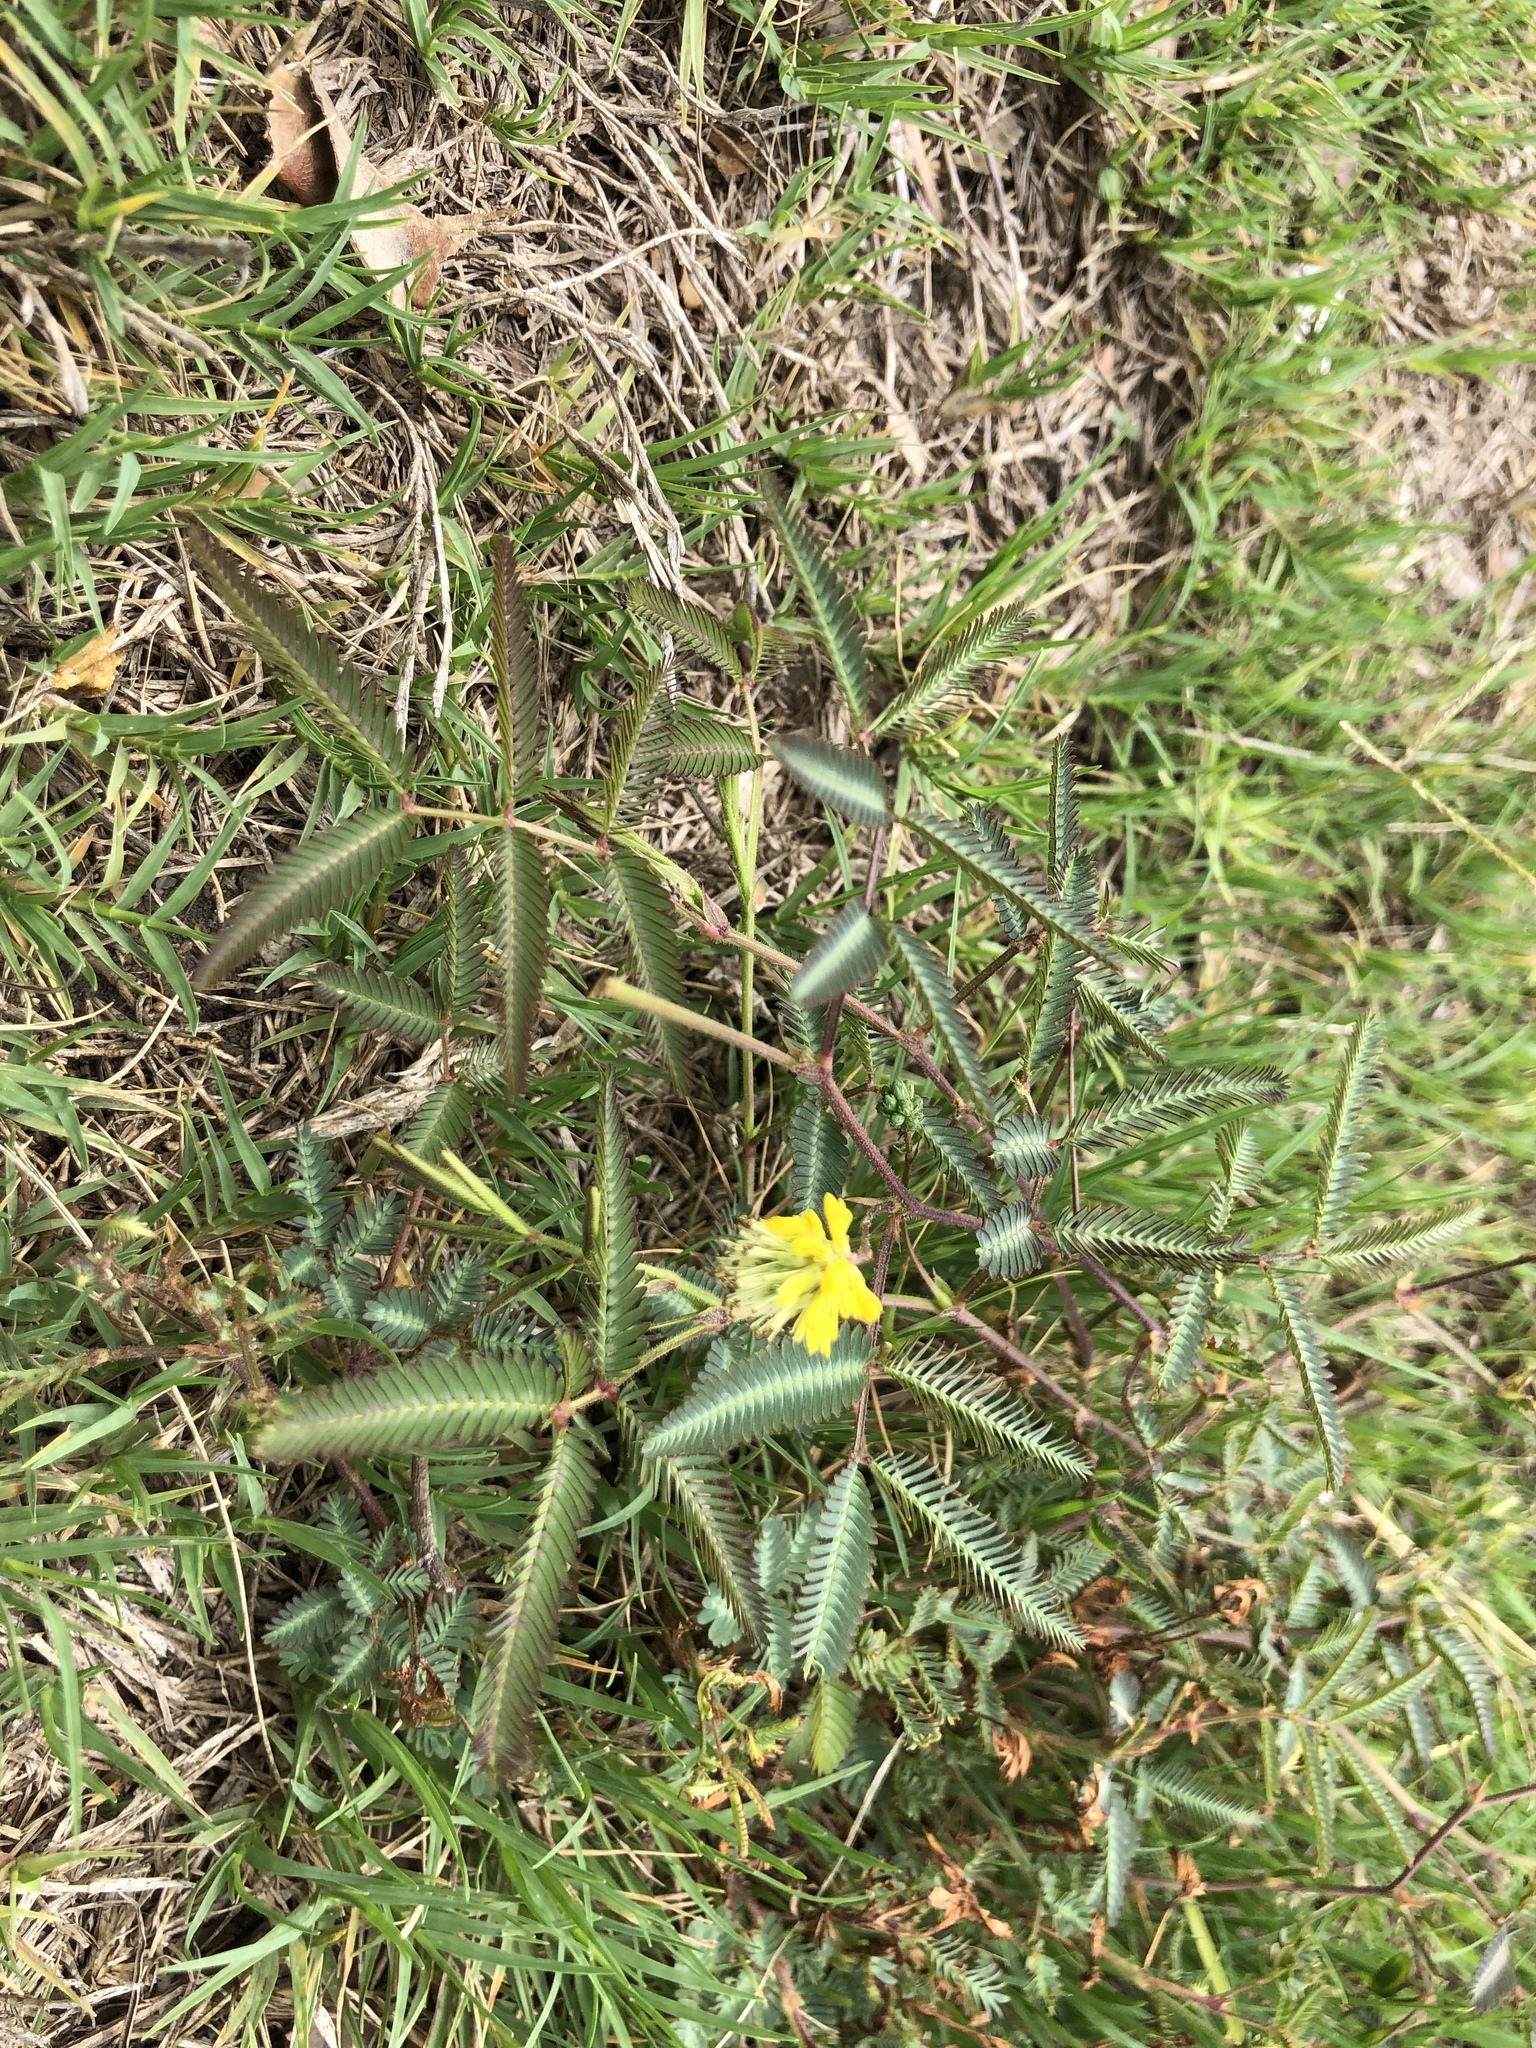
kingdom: Plantae
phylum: Tracheophyta
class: Magnoliopsida
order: Fabales
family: Fabaceae
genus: Neptunia
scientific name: Neptunia pubescens
